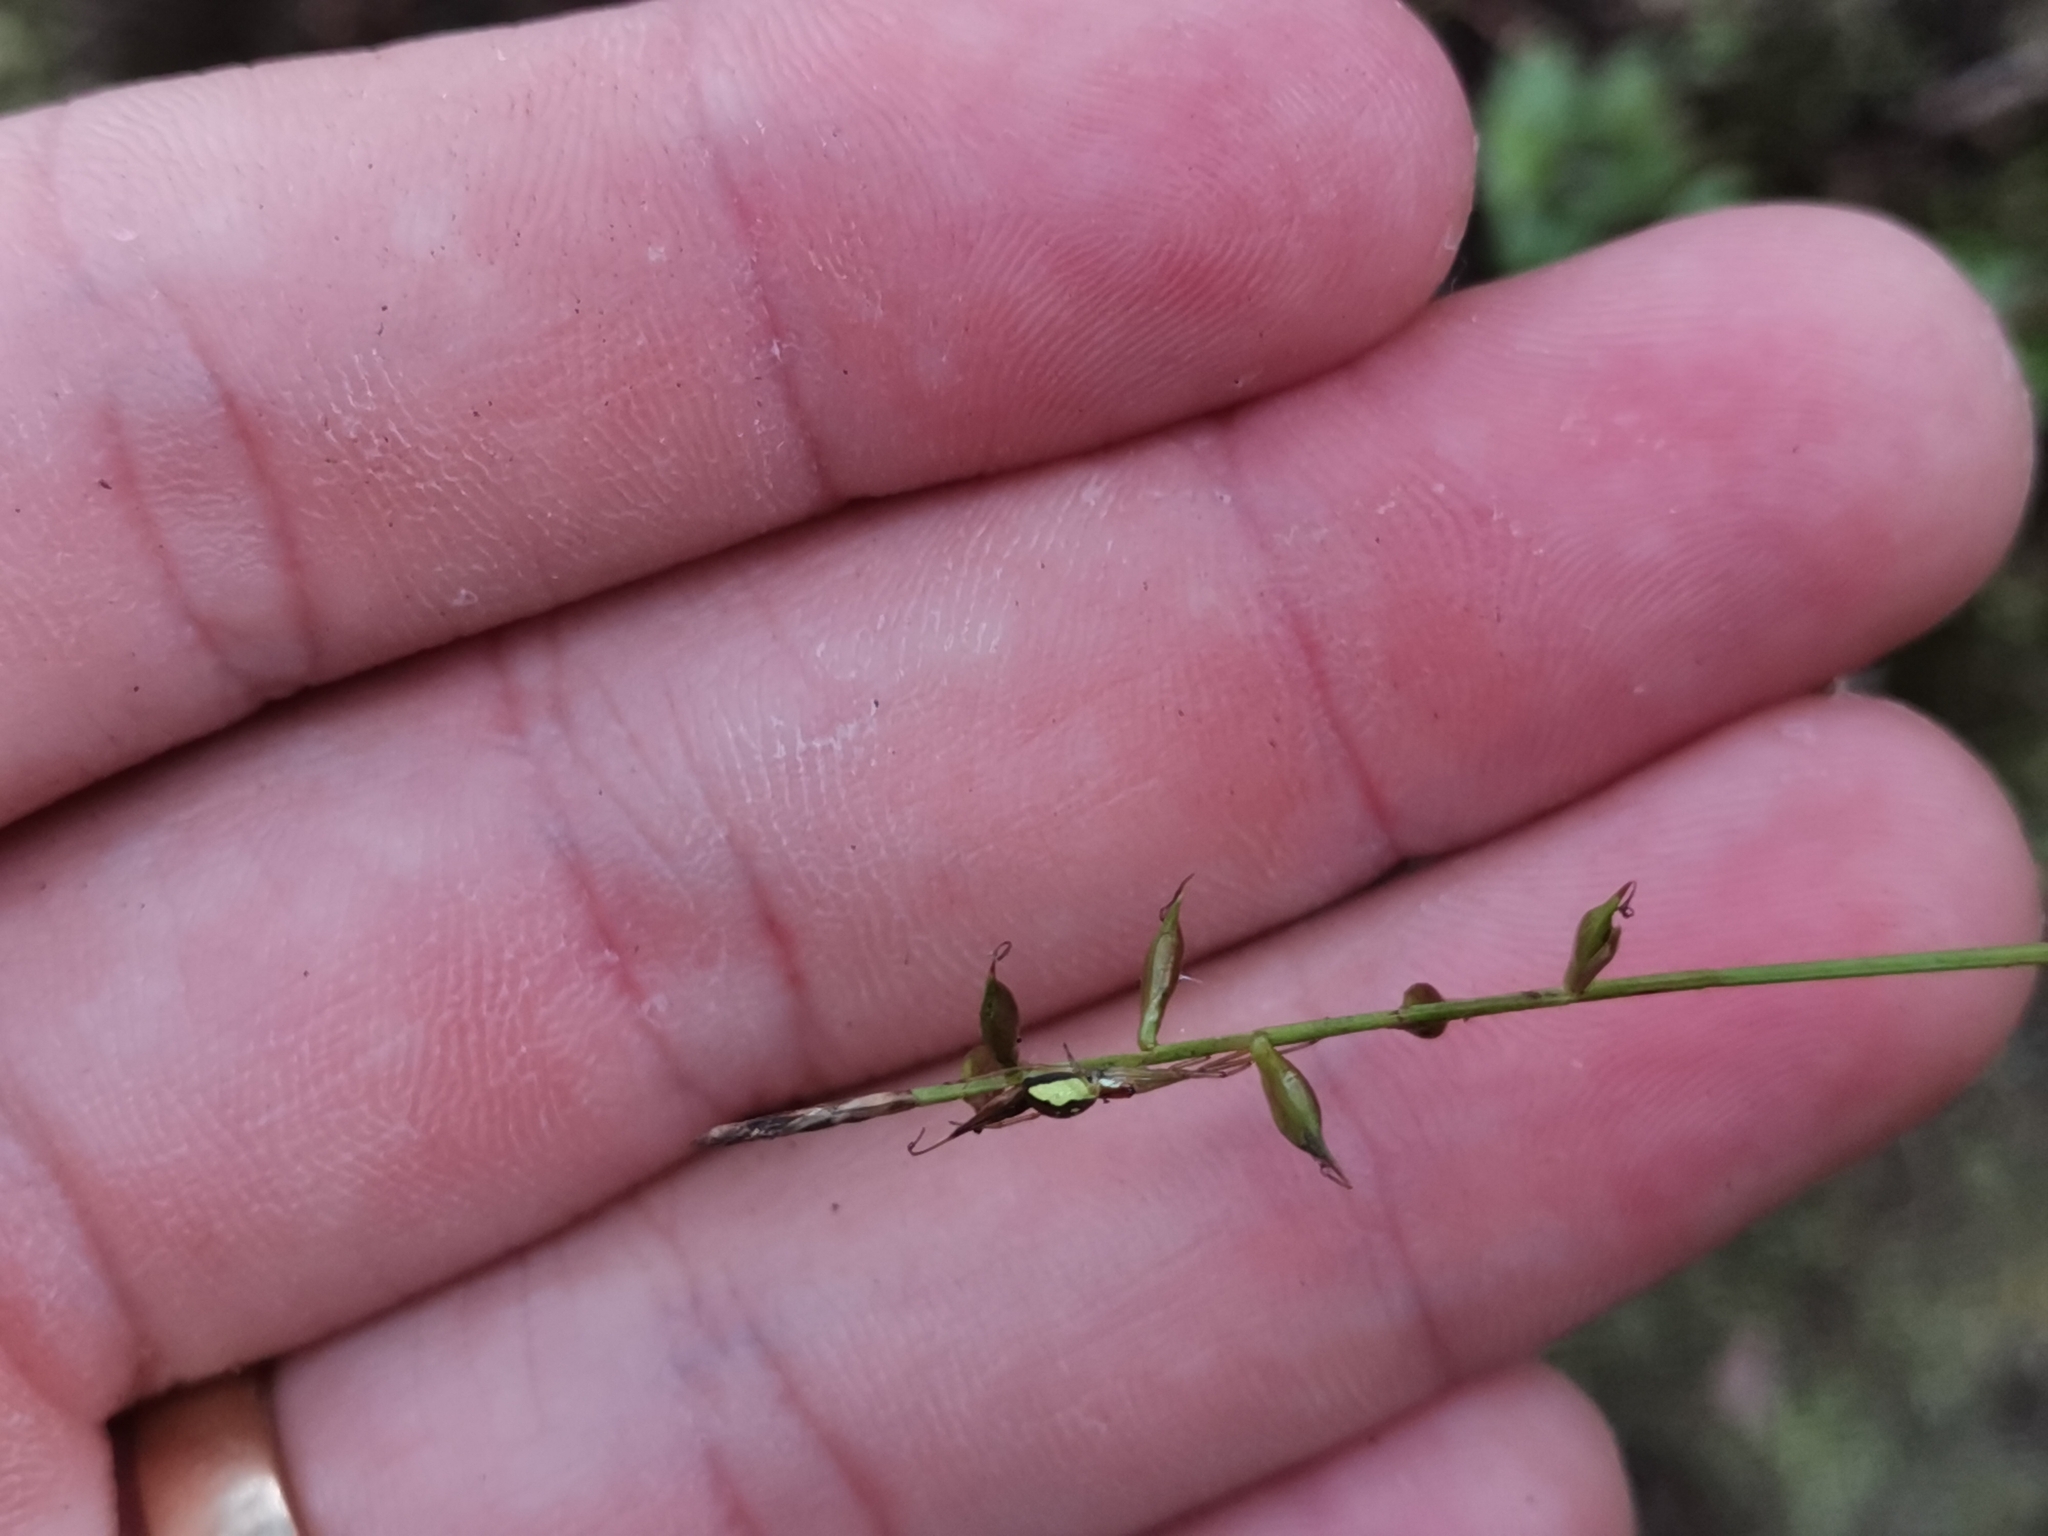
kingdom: Plantae
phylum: Tracheophyta
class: Liliopsida
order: Poales
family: Cyperaceae
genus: Carex
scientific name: Carex peregrina
